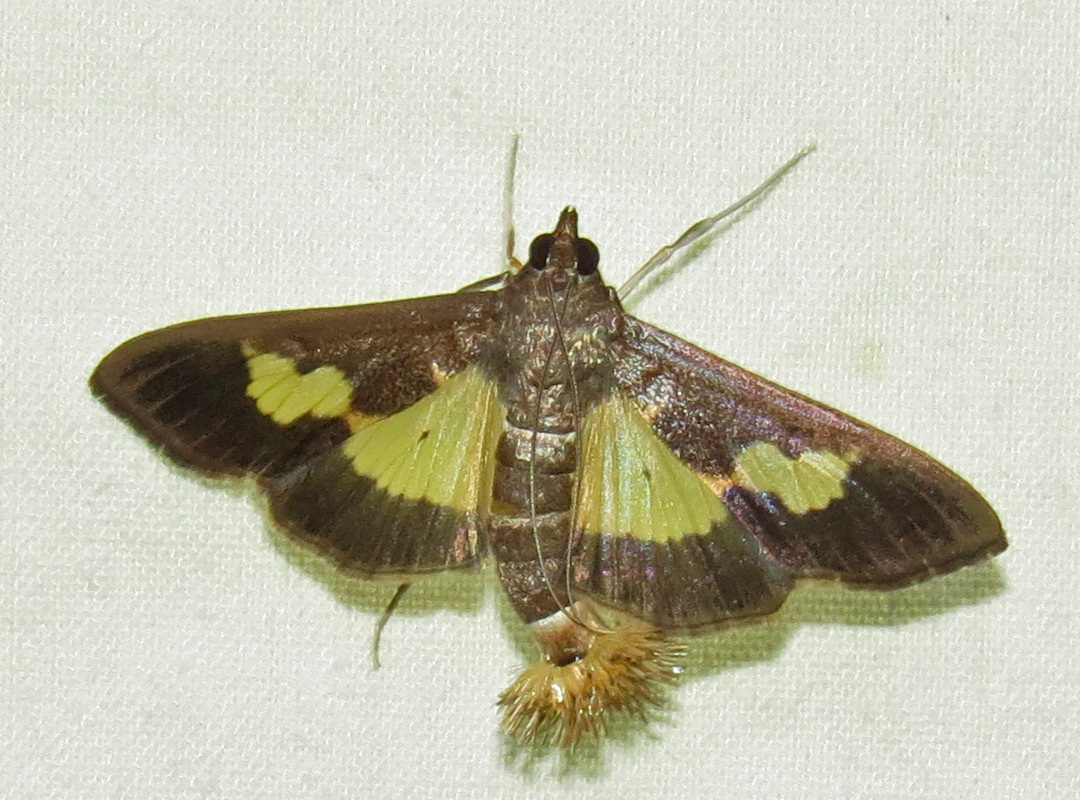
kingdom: Animalia
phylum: Arthropoda
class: Insecta
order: Lepidoptera
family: Crambidae
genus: Cryptographis
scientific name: Cryptographis nitidalis
